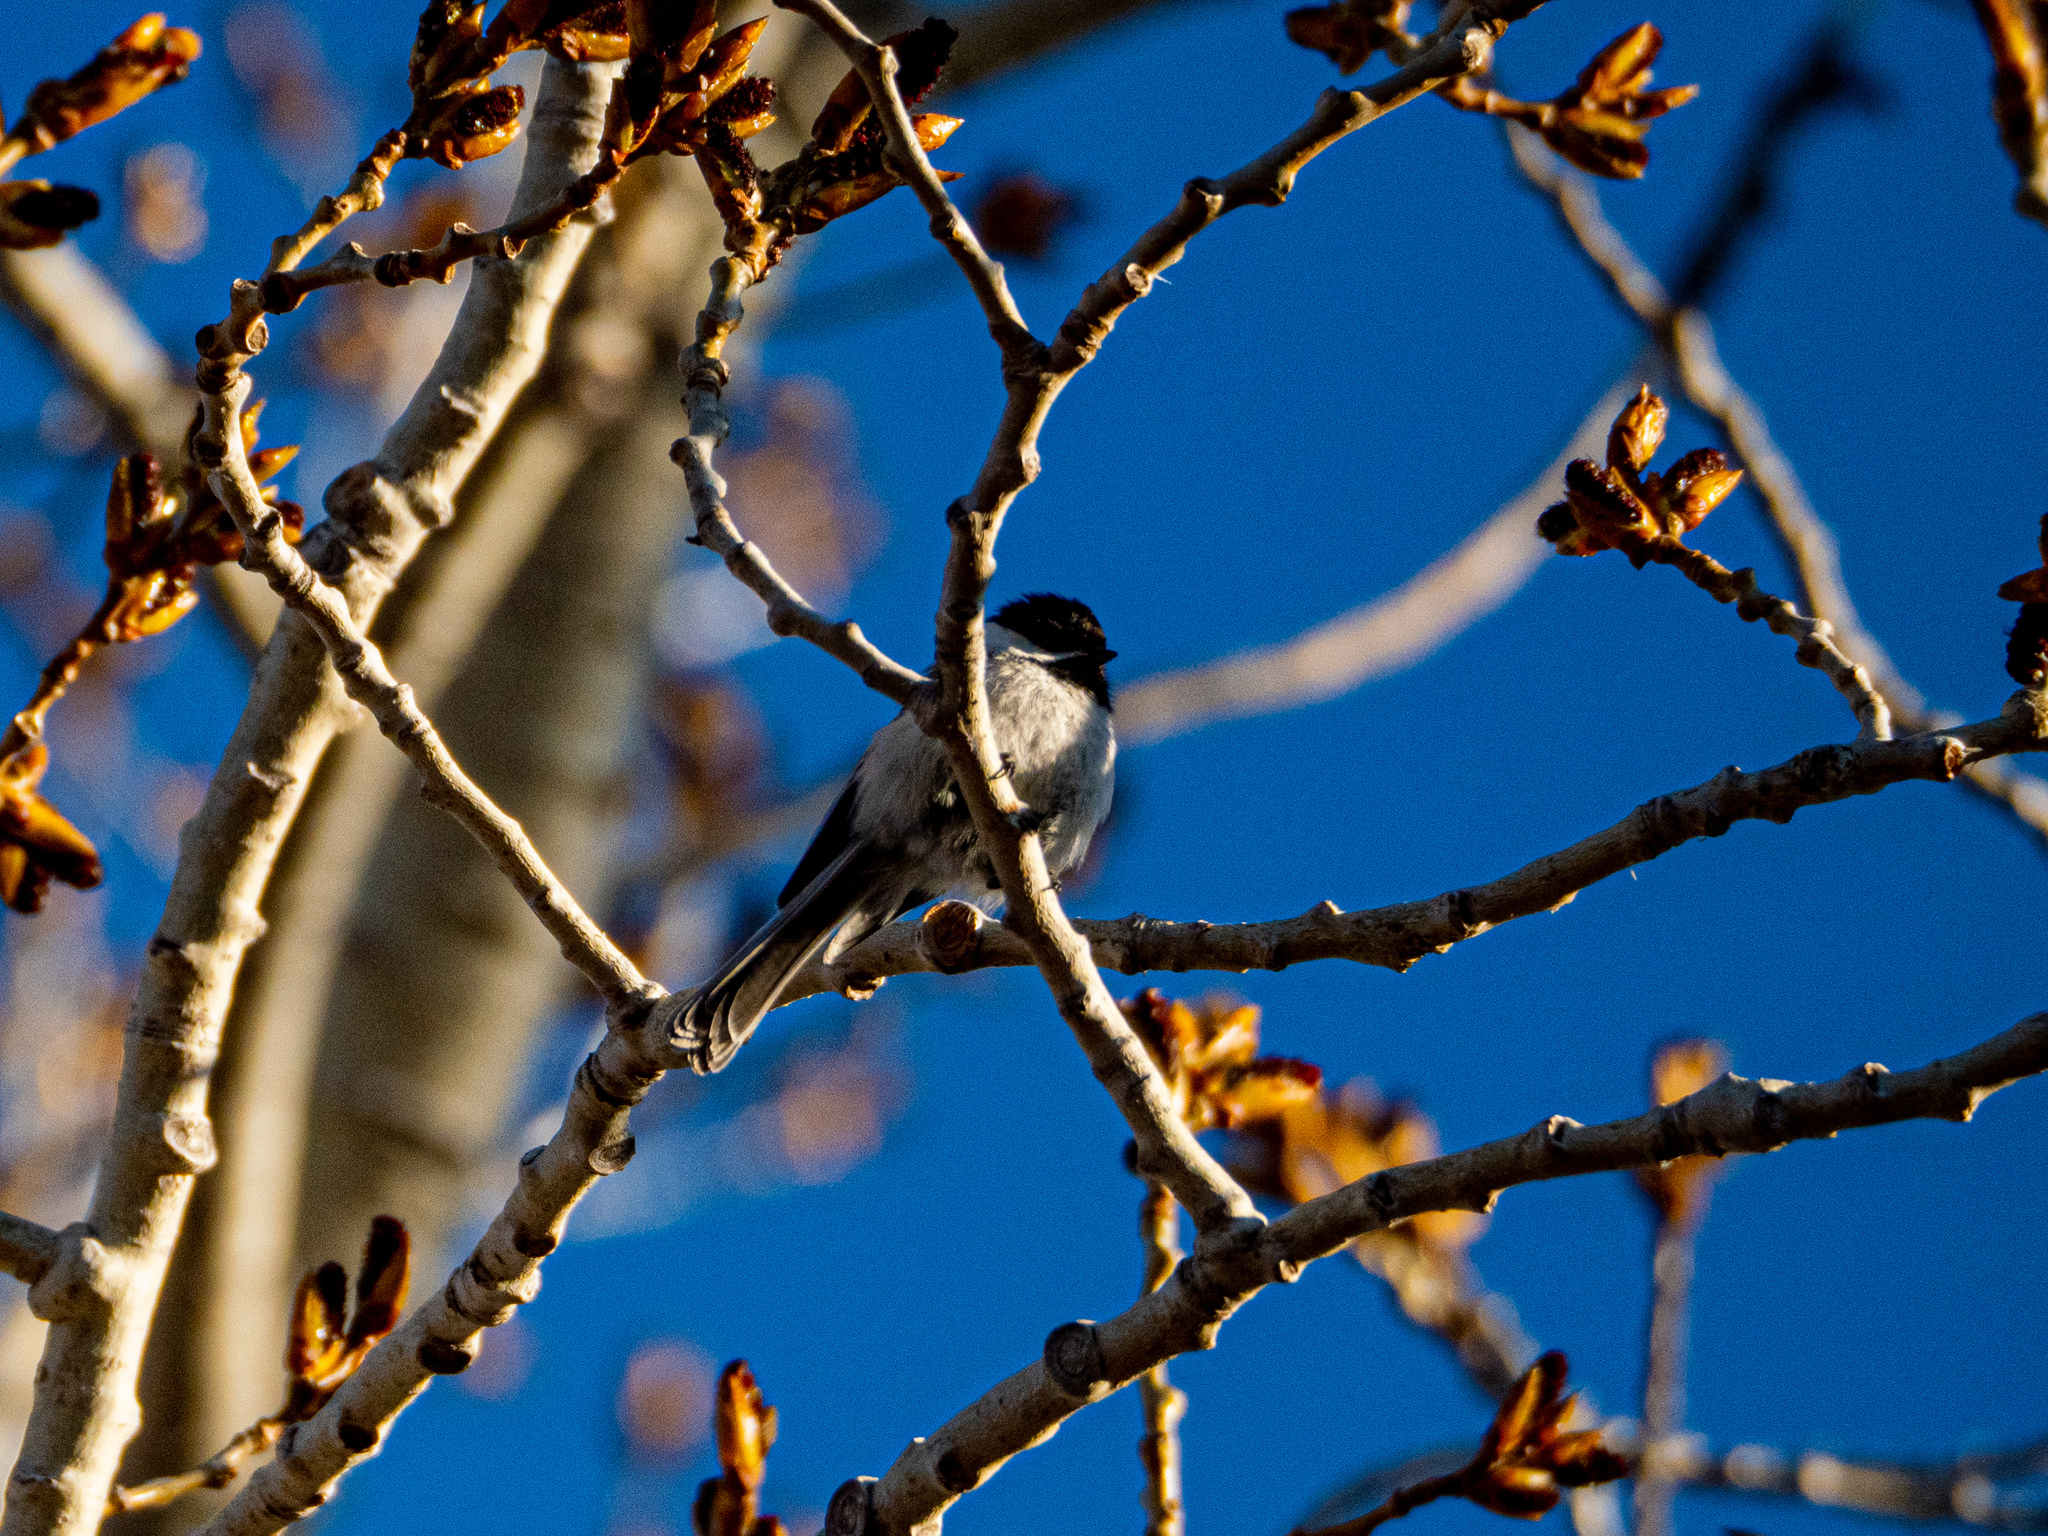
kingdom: Animalia
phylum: Chordata
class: Aves
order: Passeriformes
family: Paridae
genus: Poecile
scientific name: Poecile atricapillus
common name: Black-capped chickadee
